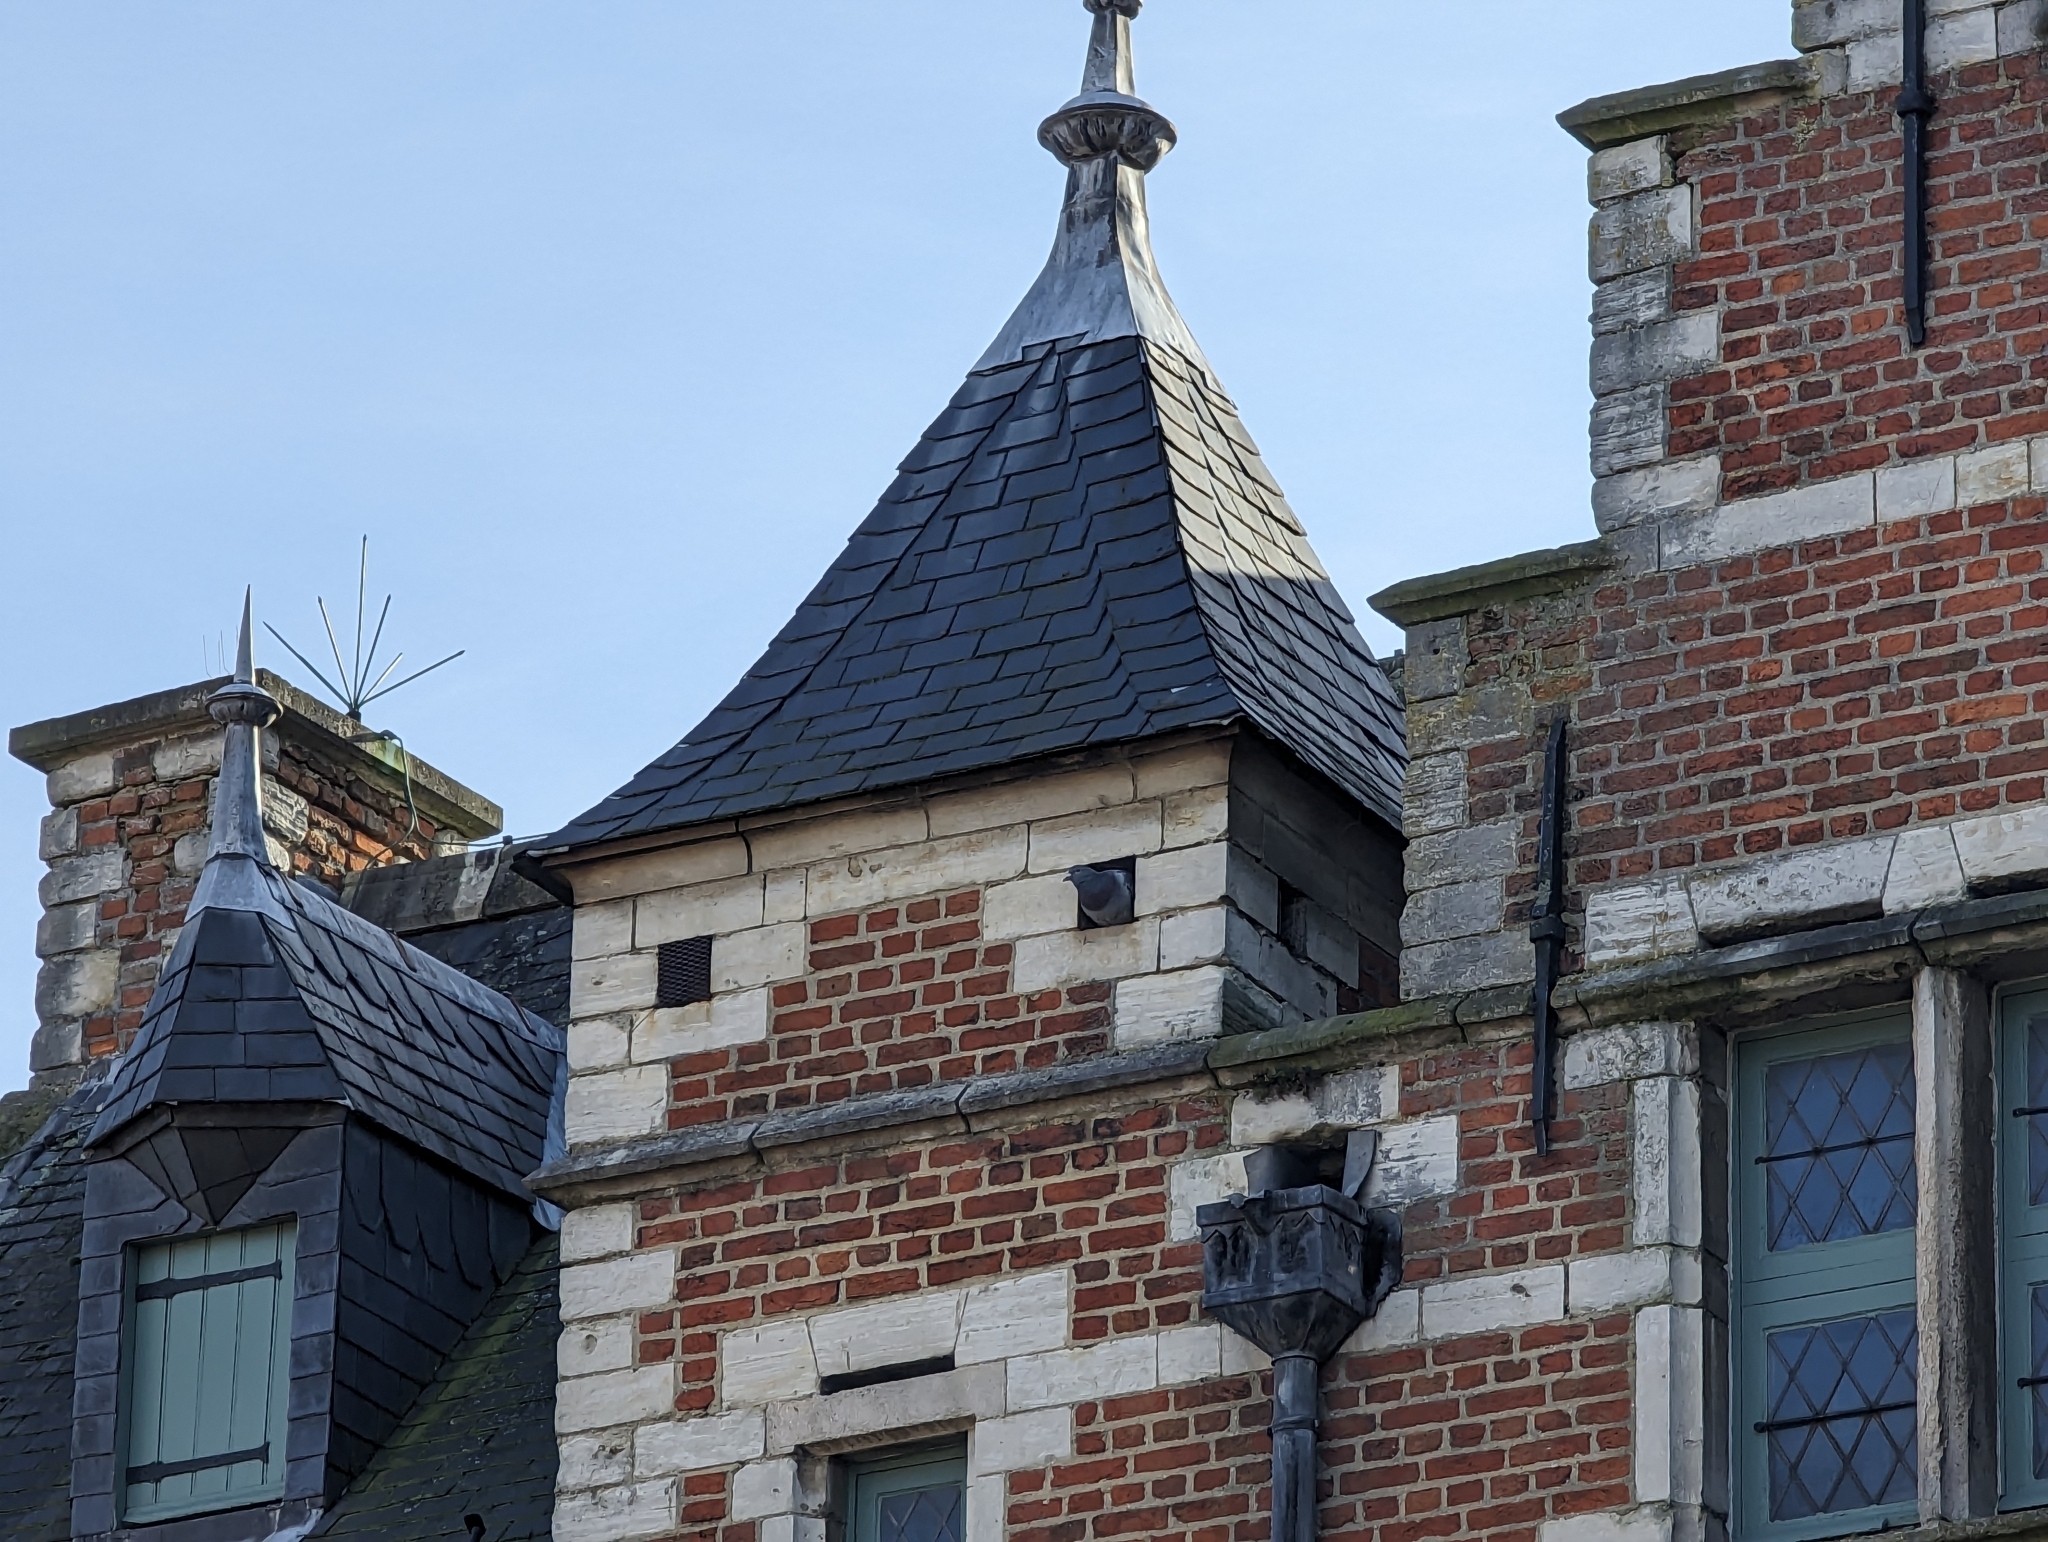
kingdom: Animalia
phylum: Chordata
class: Aves
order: Columbiformes
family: Columbidae
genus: Columba
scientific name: Columba oenas
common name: Stock dove
